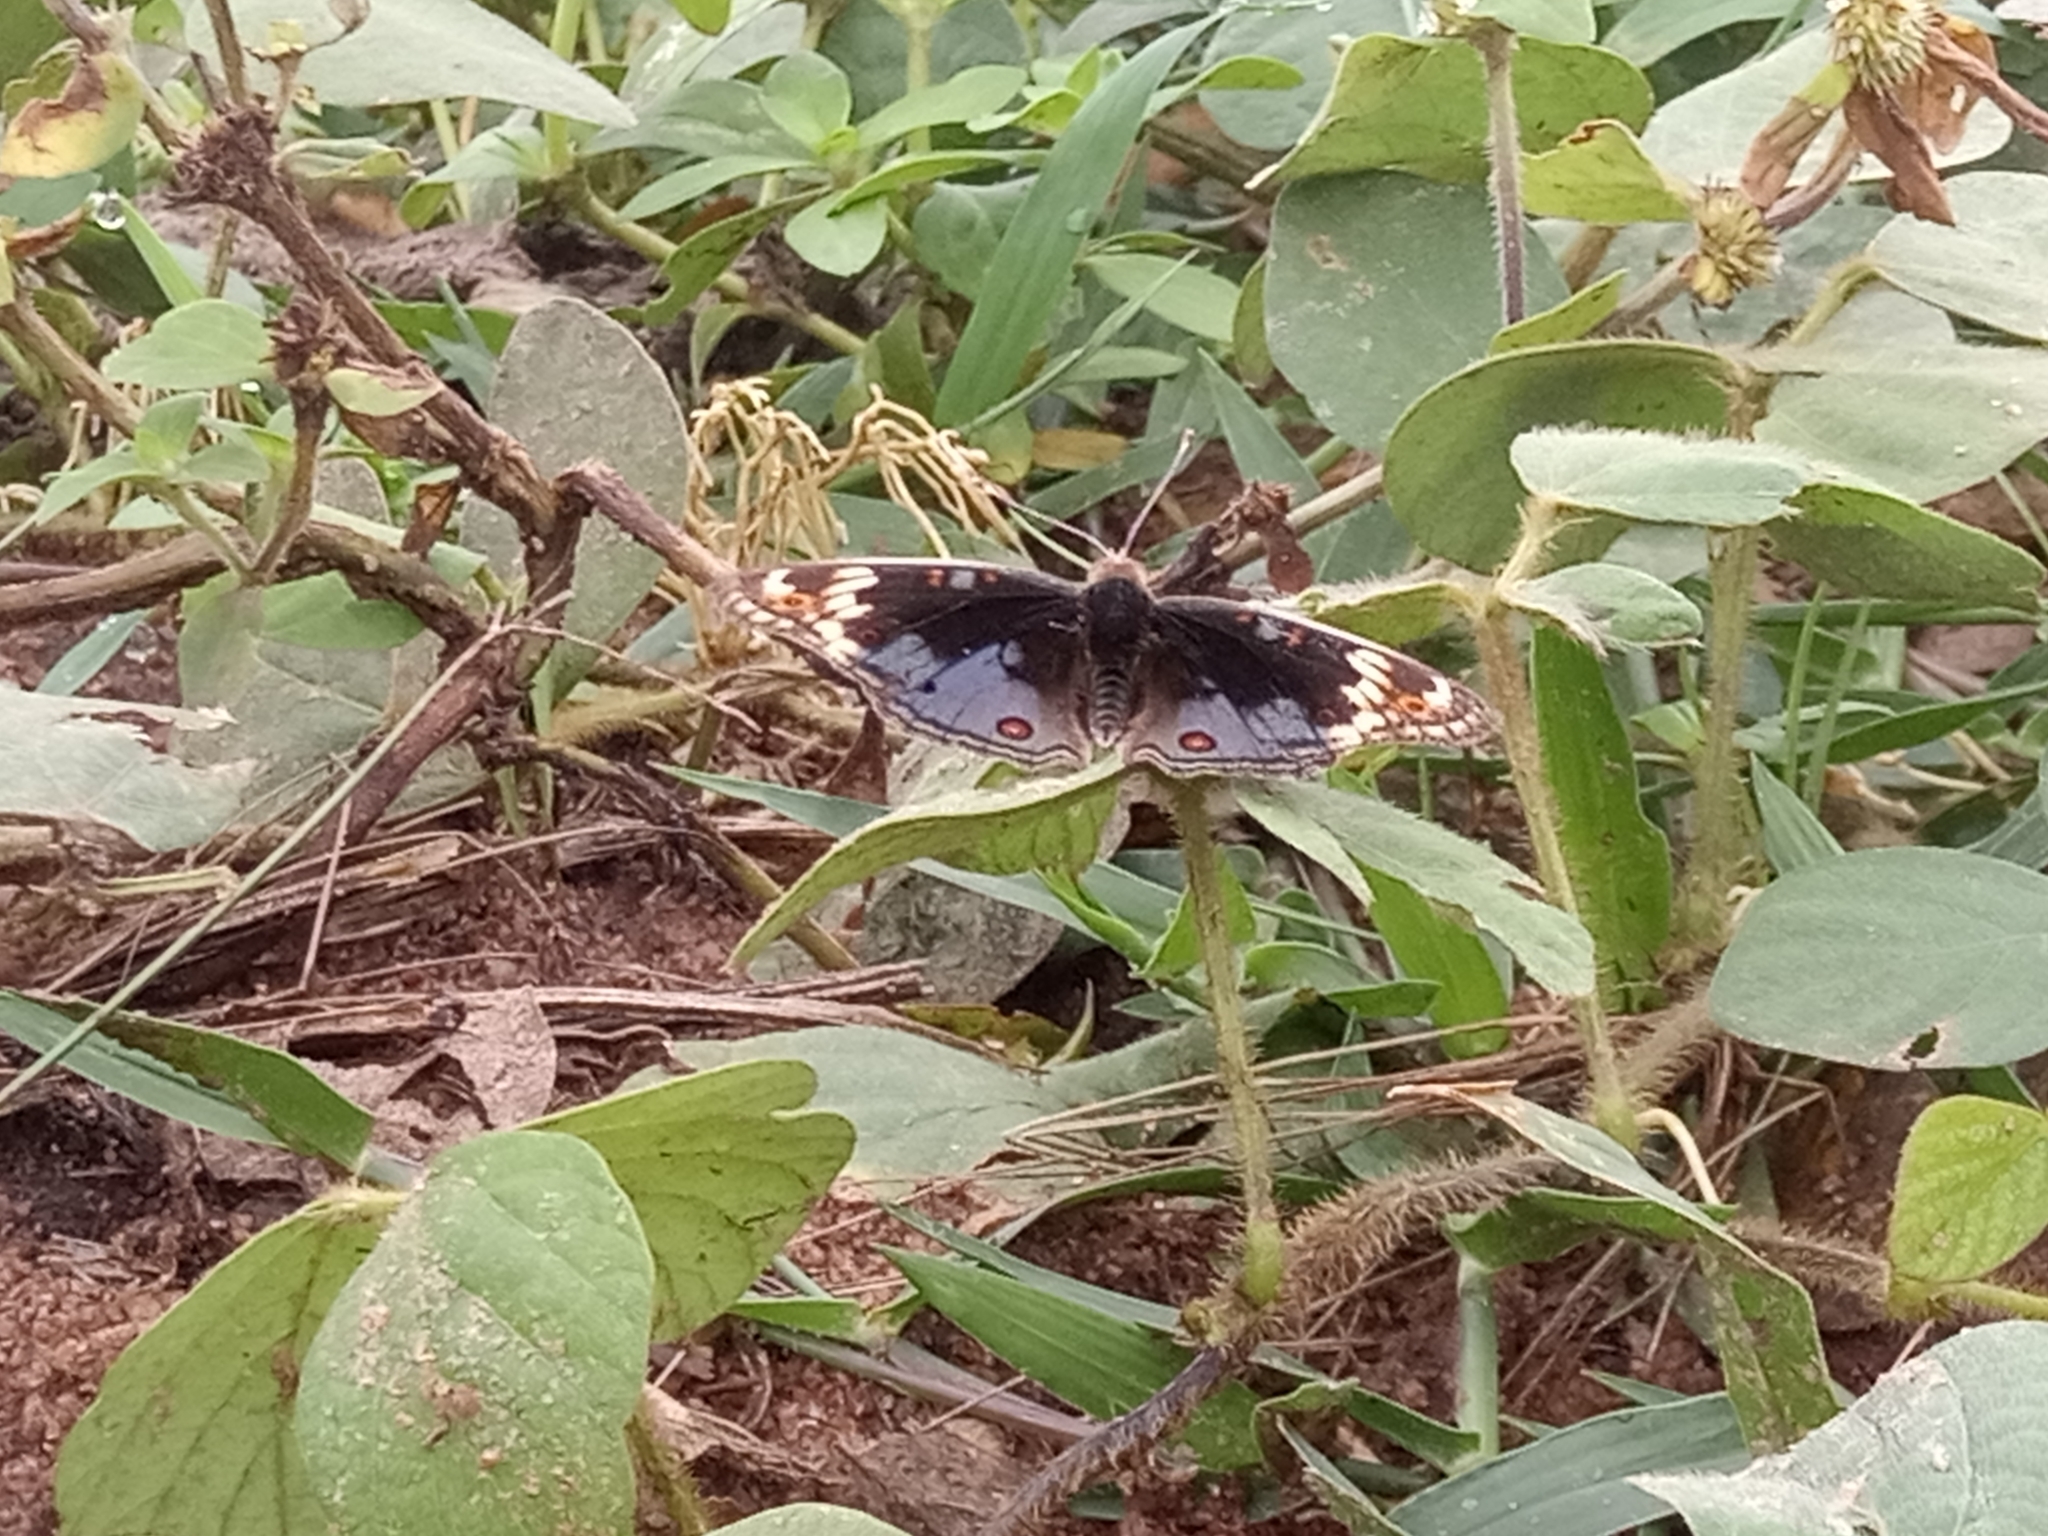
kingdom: Animalia
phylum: Arthropoda
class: Insecta
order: Lepidoptera
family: Nymphalidae
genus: Junonia
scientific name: Junonia orithya
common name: Blue pansy
